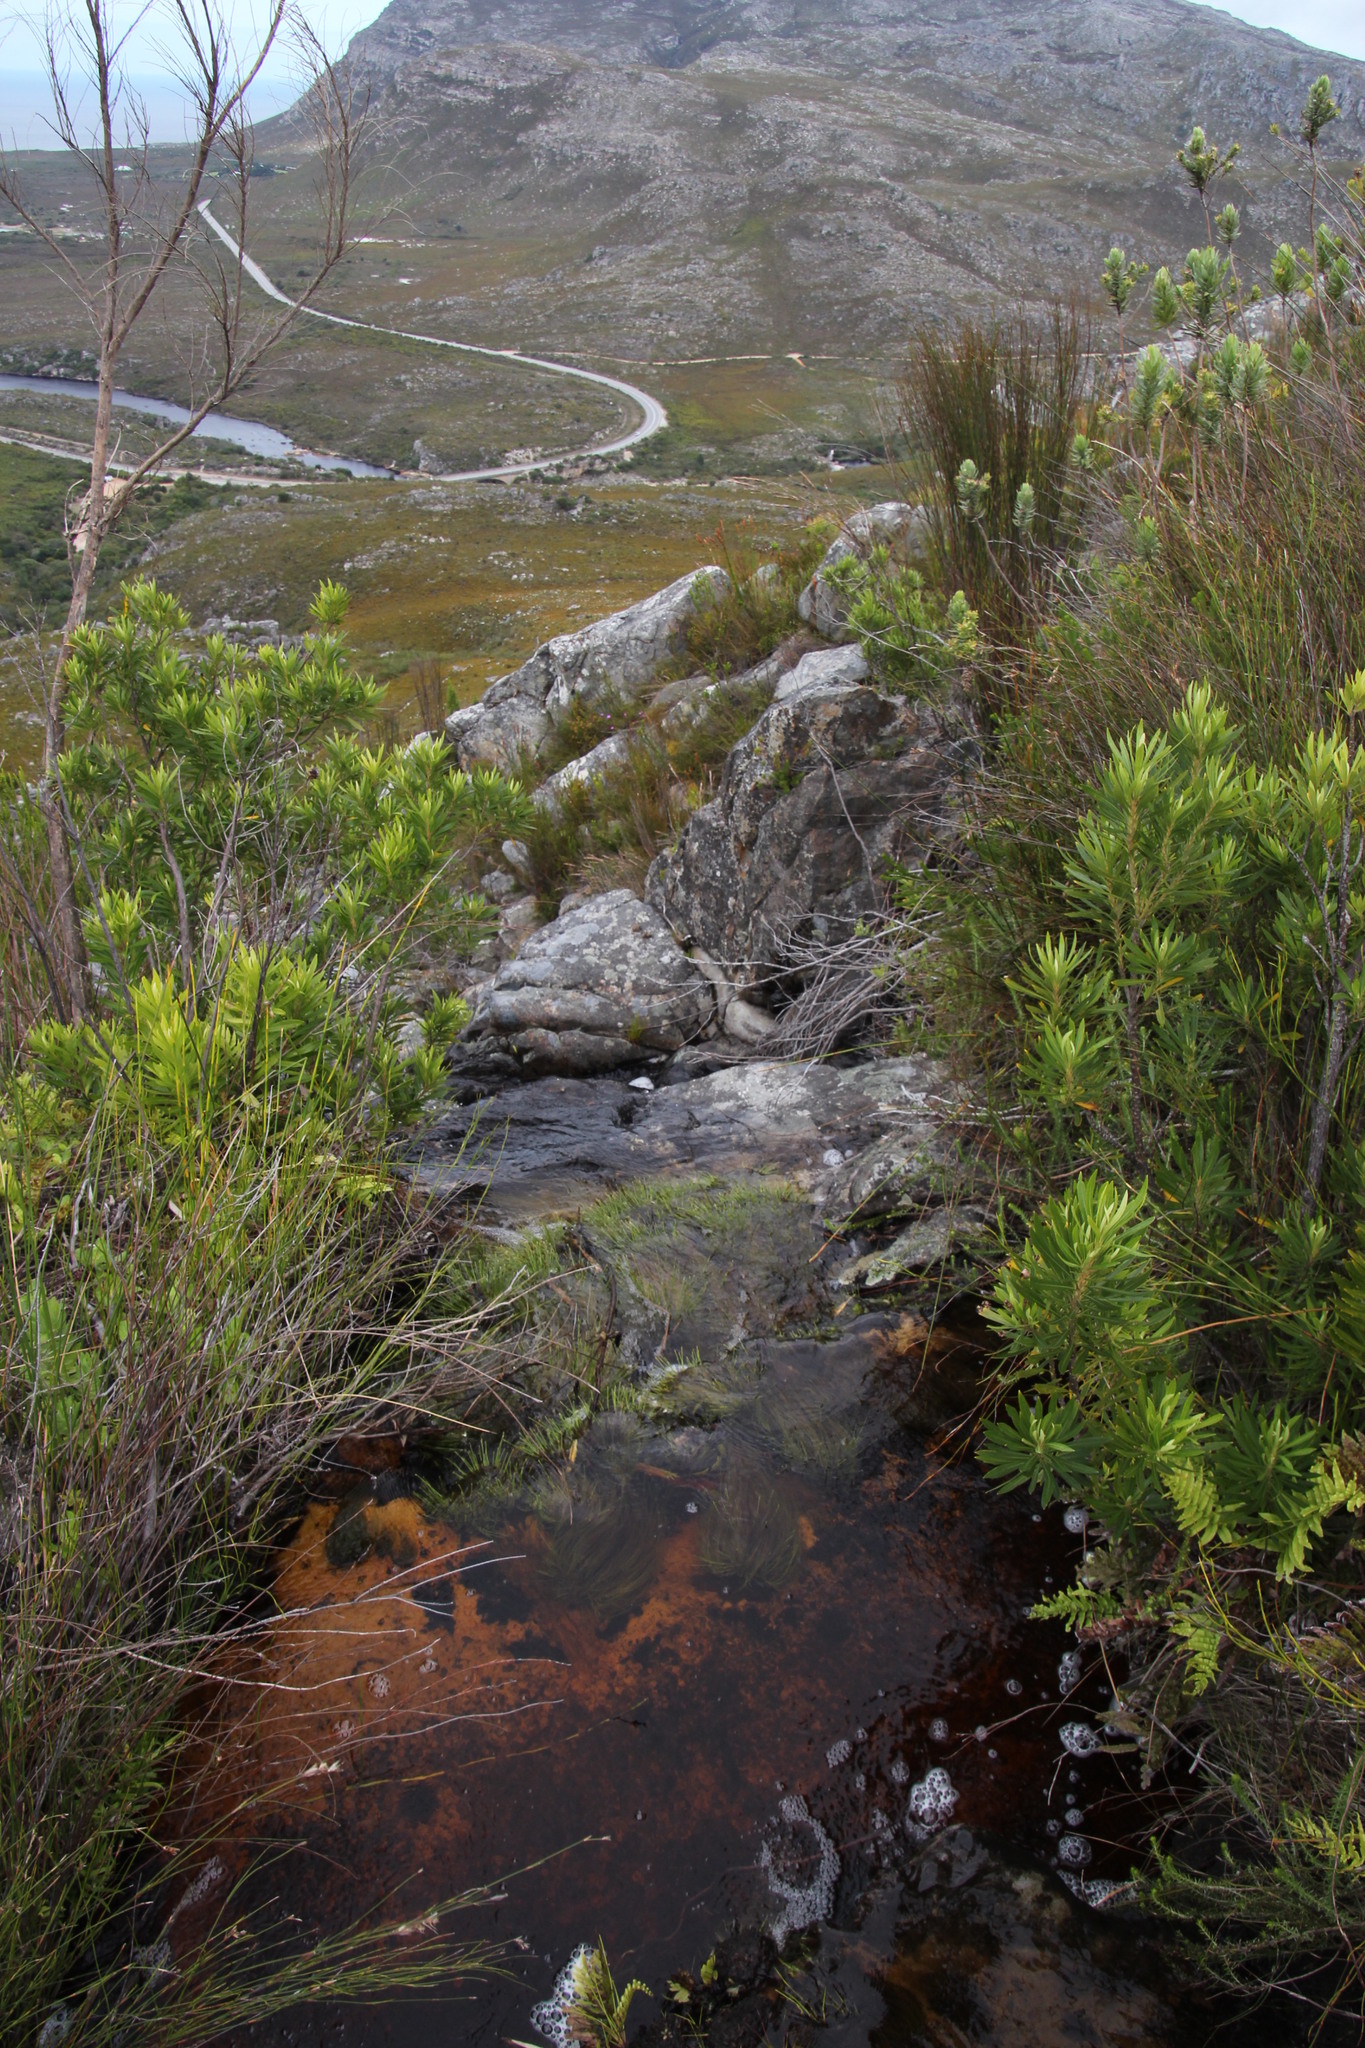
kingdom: Plantae
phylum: Tracheophyta
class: Liliopsida
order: Poales
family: Cyperaceae
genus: Isolepis
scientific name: Isolepis digitata
